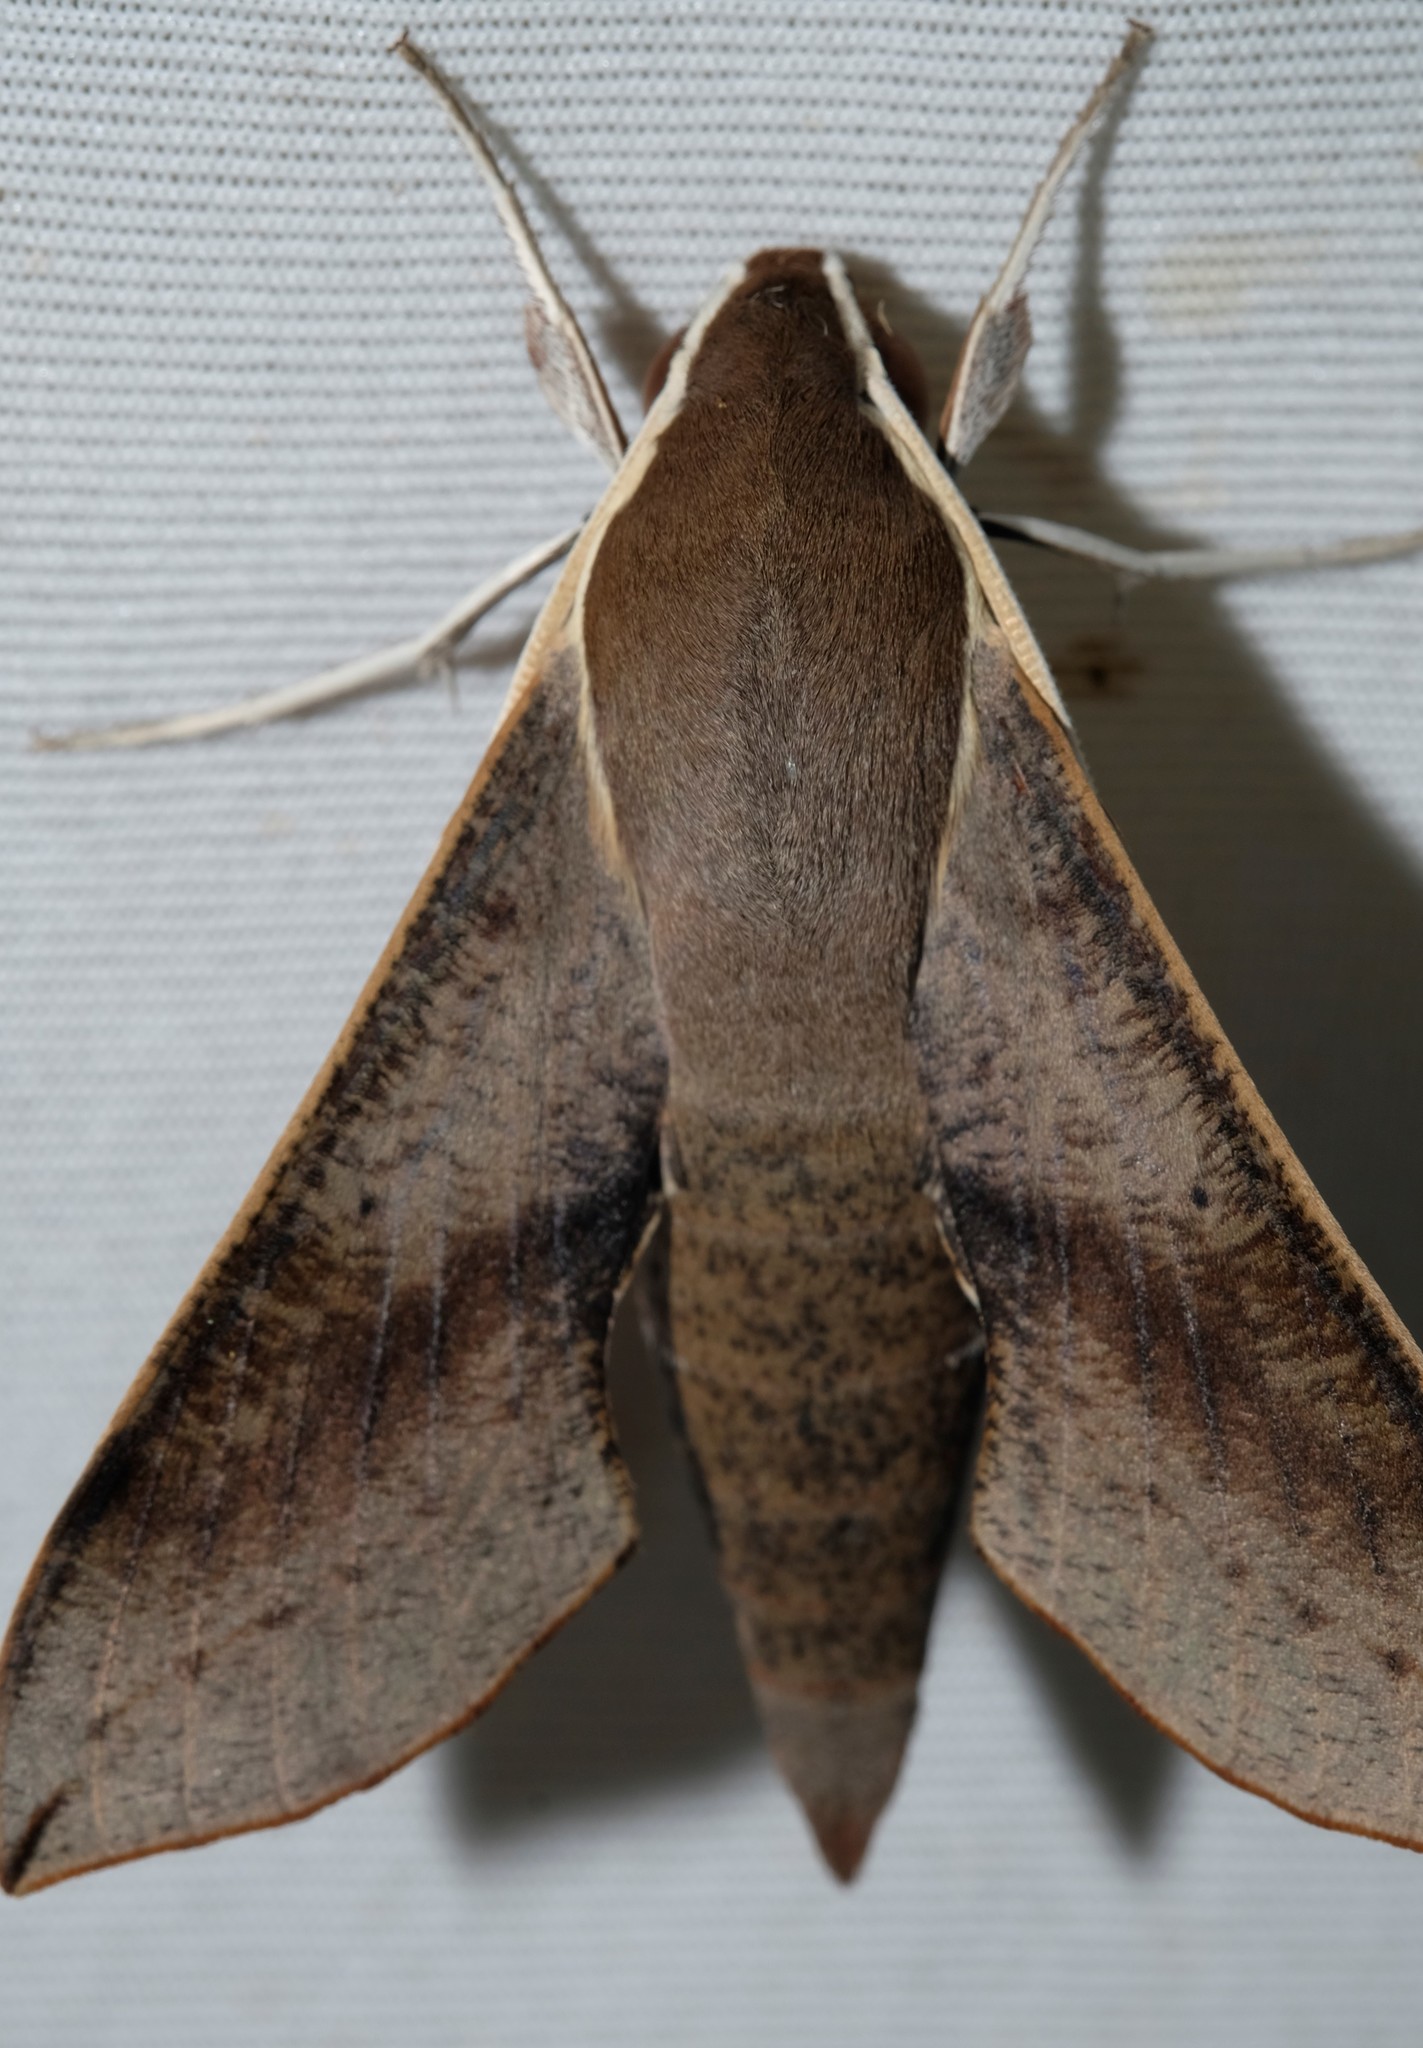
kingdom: Animalia
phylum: Arthropoda
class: Insecta
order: Lepidoptera
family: Sphingidae
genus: Hippotion
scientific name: Hippotion scrofa
